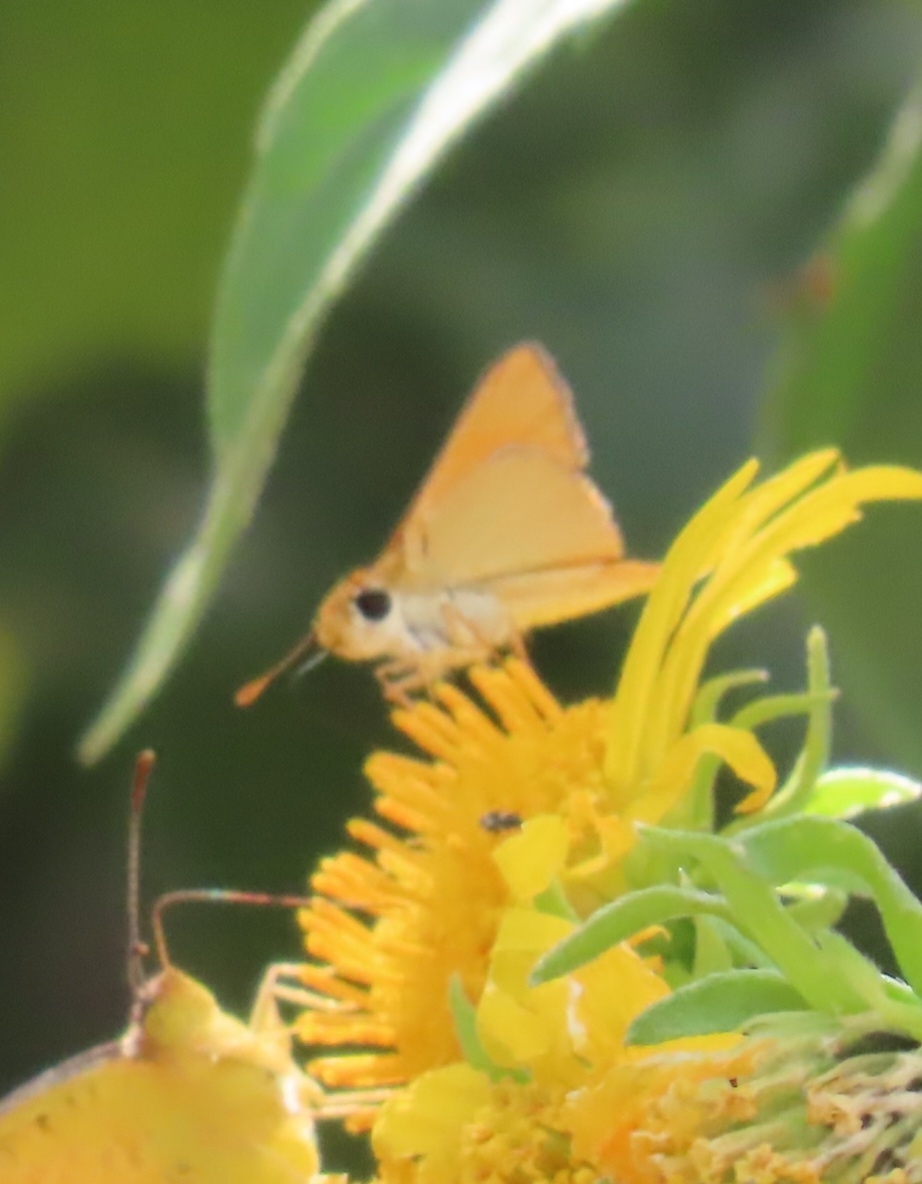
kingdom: Animalia
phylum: Arthropoda
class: Insecta
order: Lepidoptera
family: Hesperiidae
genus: Copaeodes
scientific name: Copaeodes aurantiaca
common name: Orange skipperling
